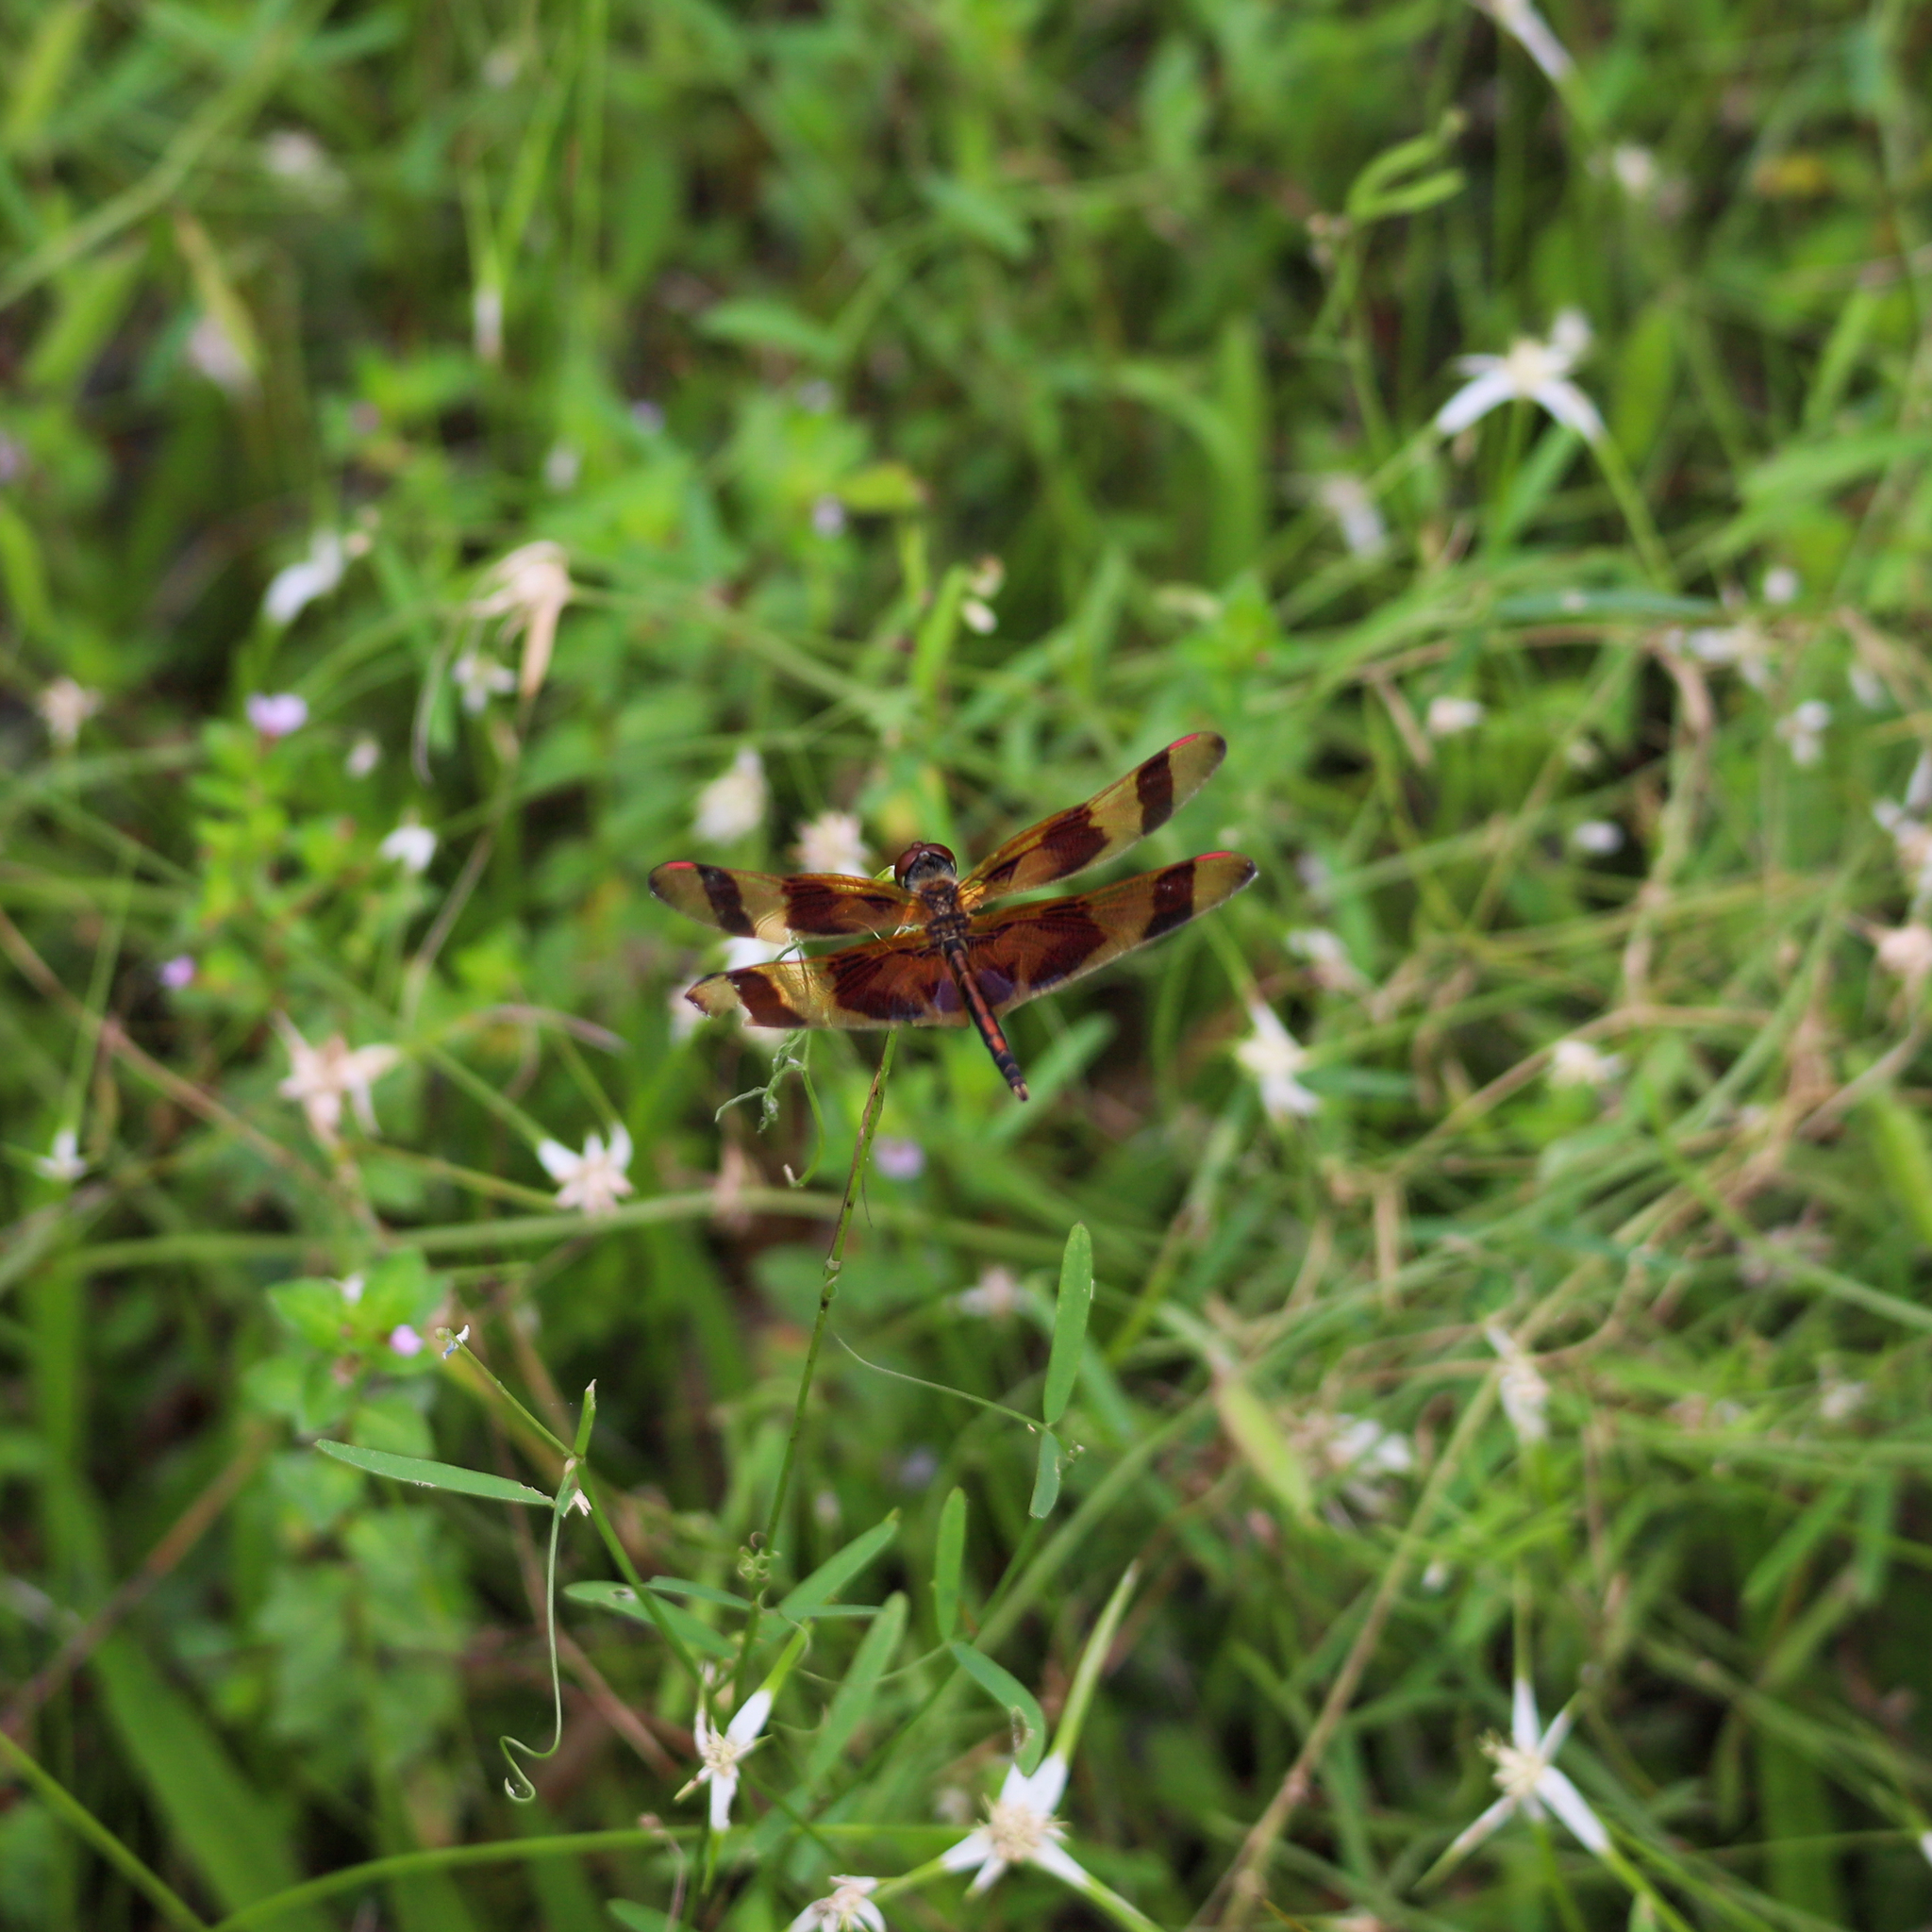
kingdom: Animalia
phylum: Arthropoda
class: Insecta
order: Odonata
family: Libellulidae
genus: Celithemis
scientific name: Celithemis eponina
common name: Halloween pennant
